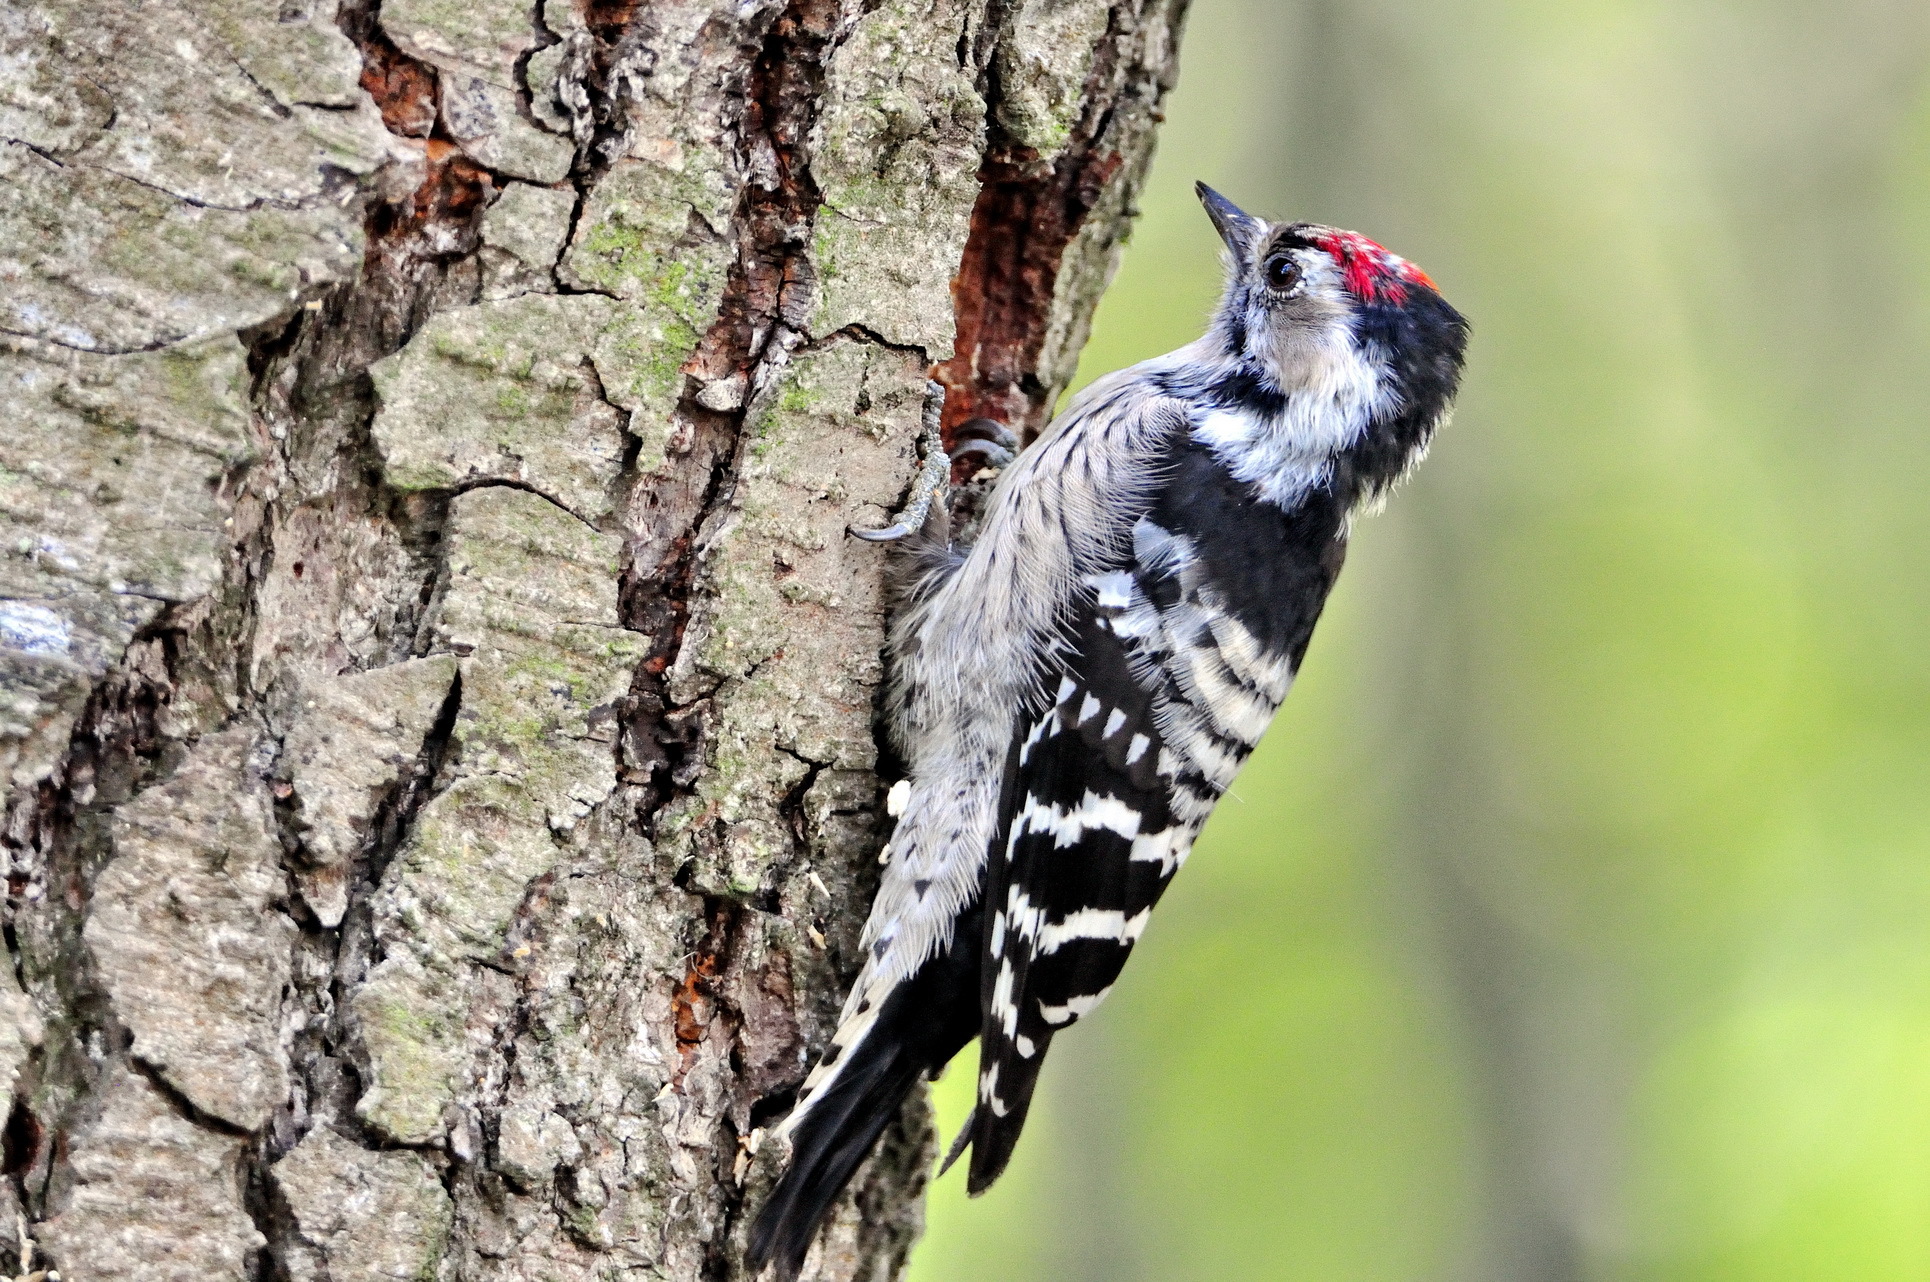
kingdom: Animalia
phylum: Chordata
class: Aves
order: Piciformes
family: Picidae
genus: Dryobates
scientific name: Dryobates minor
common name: Lesser spotted woodpecker
